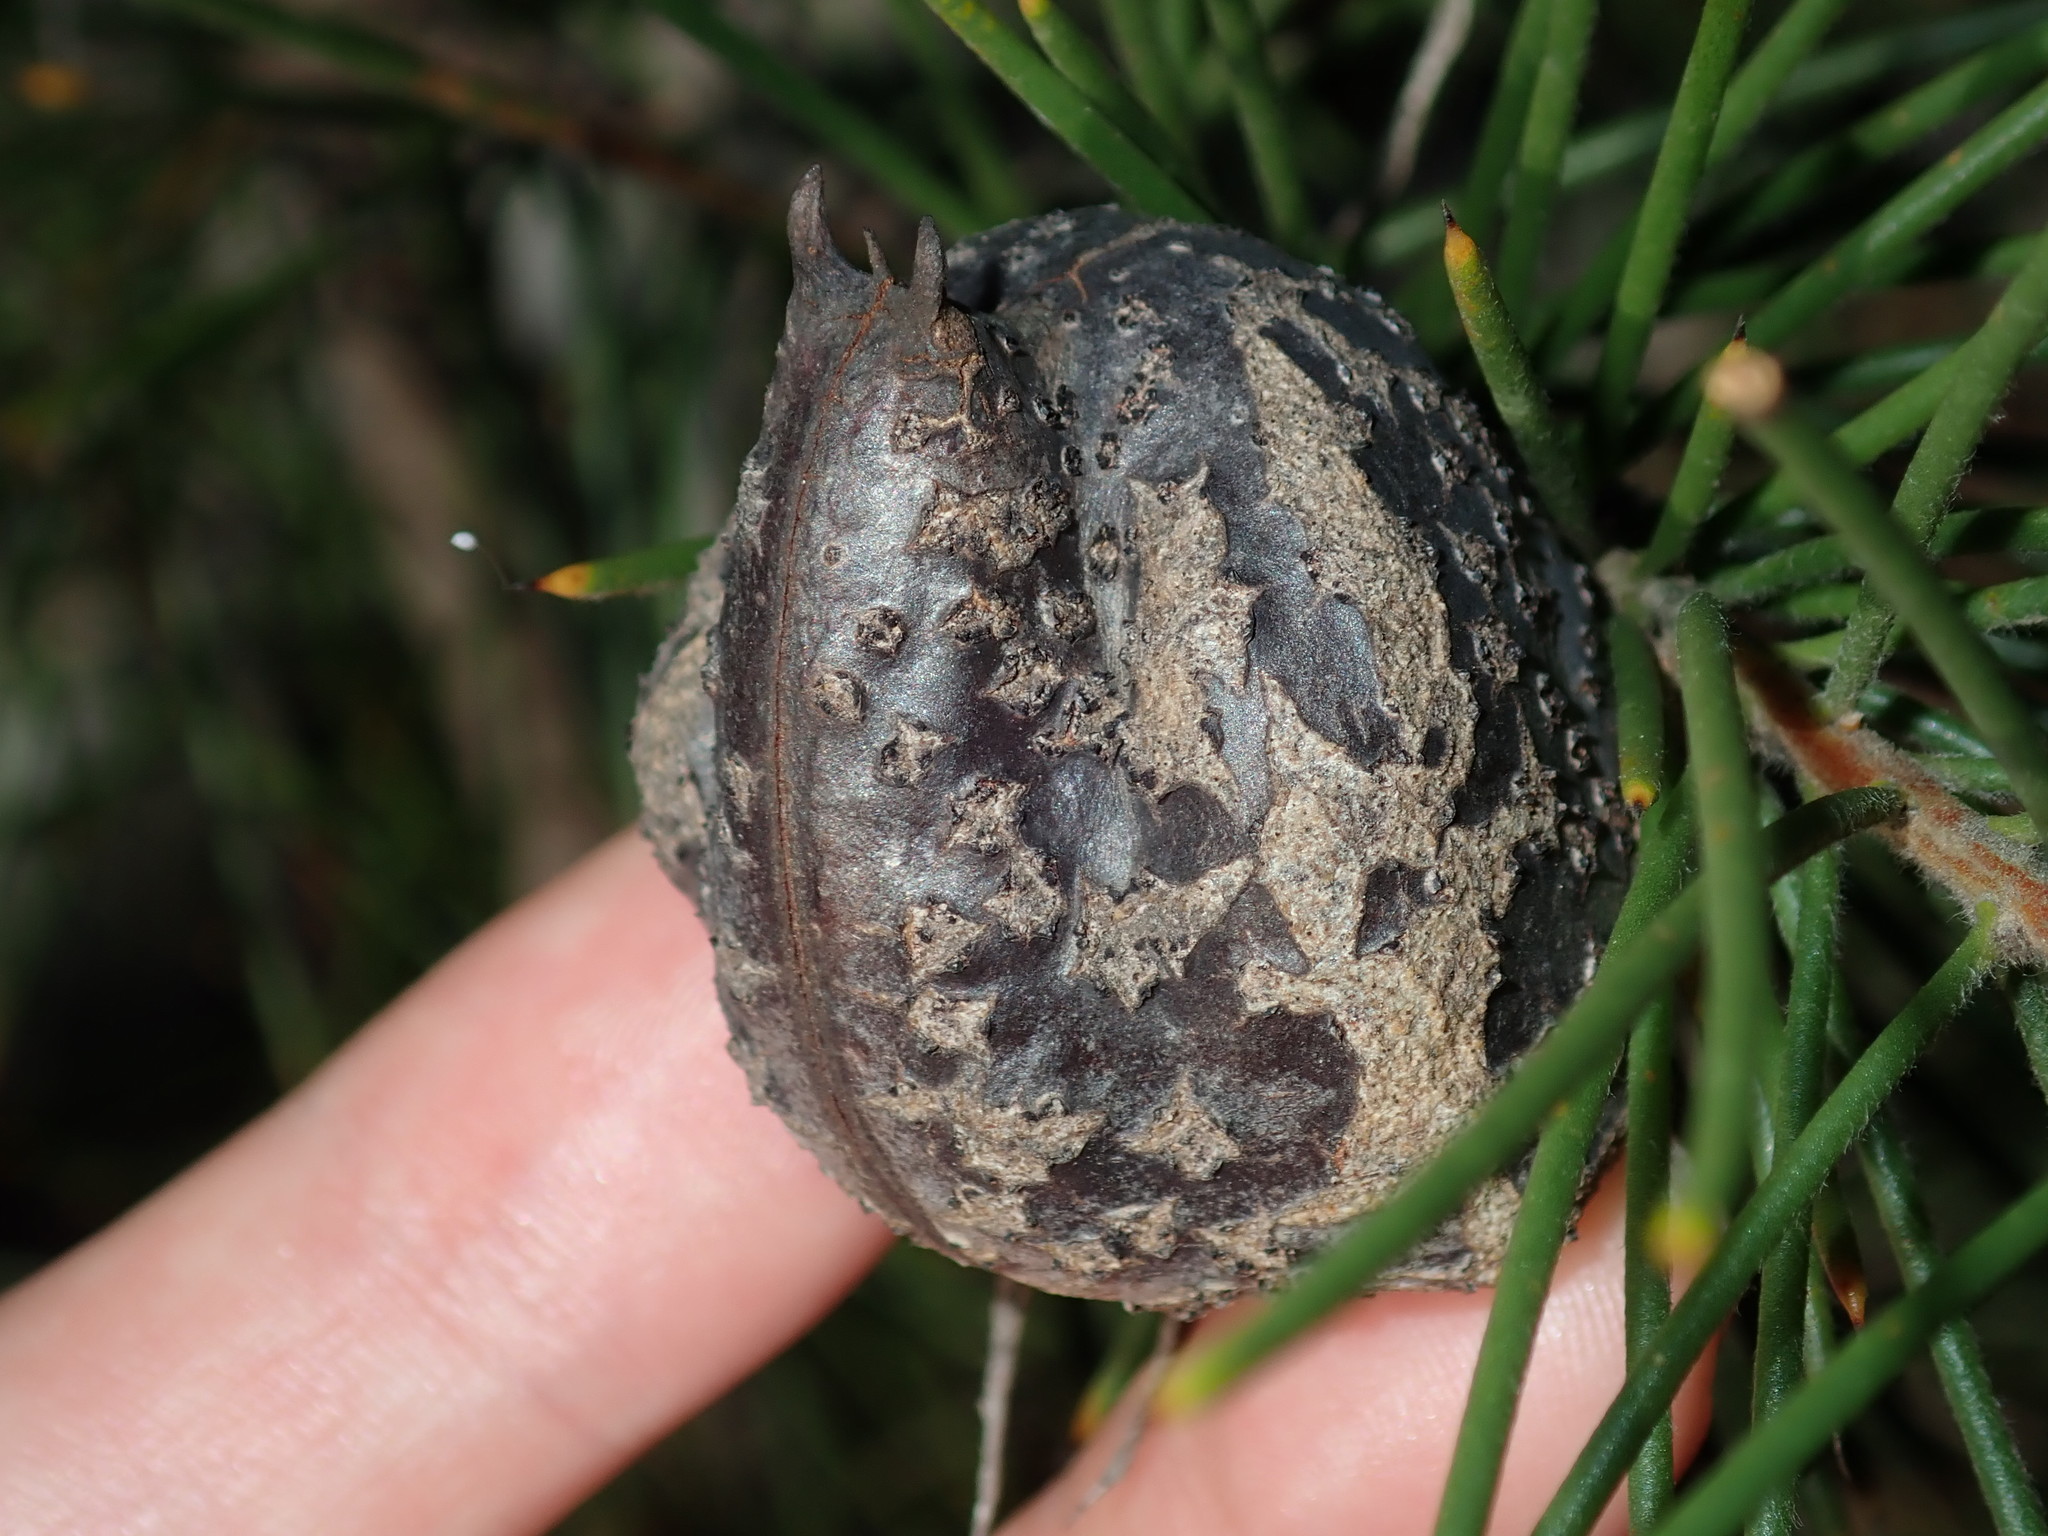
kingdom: Plantae
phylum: Tracheophyta
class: Magnoliopsida
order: Proteales
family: Proteaceae
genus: Hakea
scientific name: Hakea gibbosa
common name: Rock hakea
